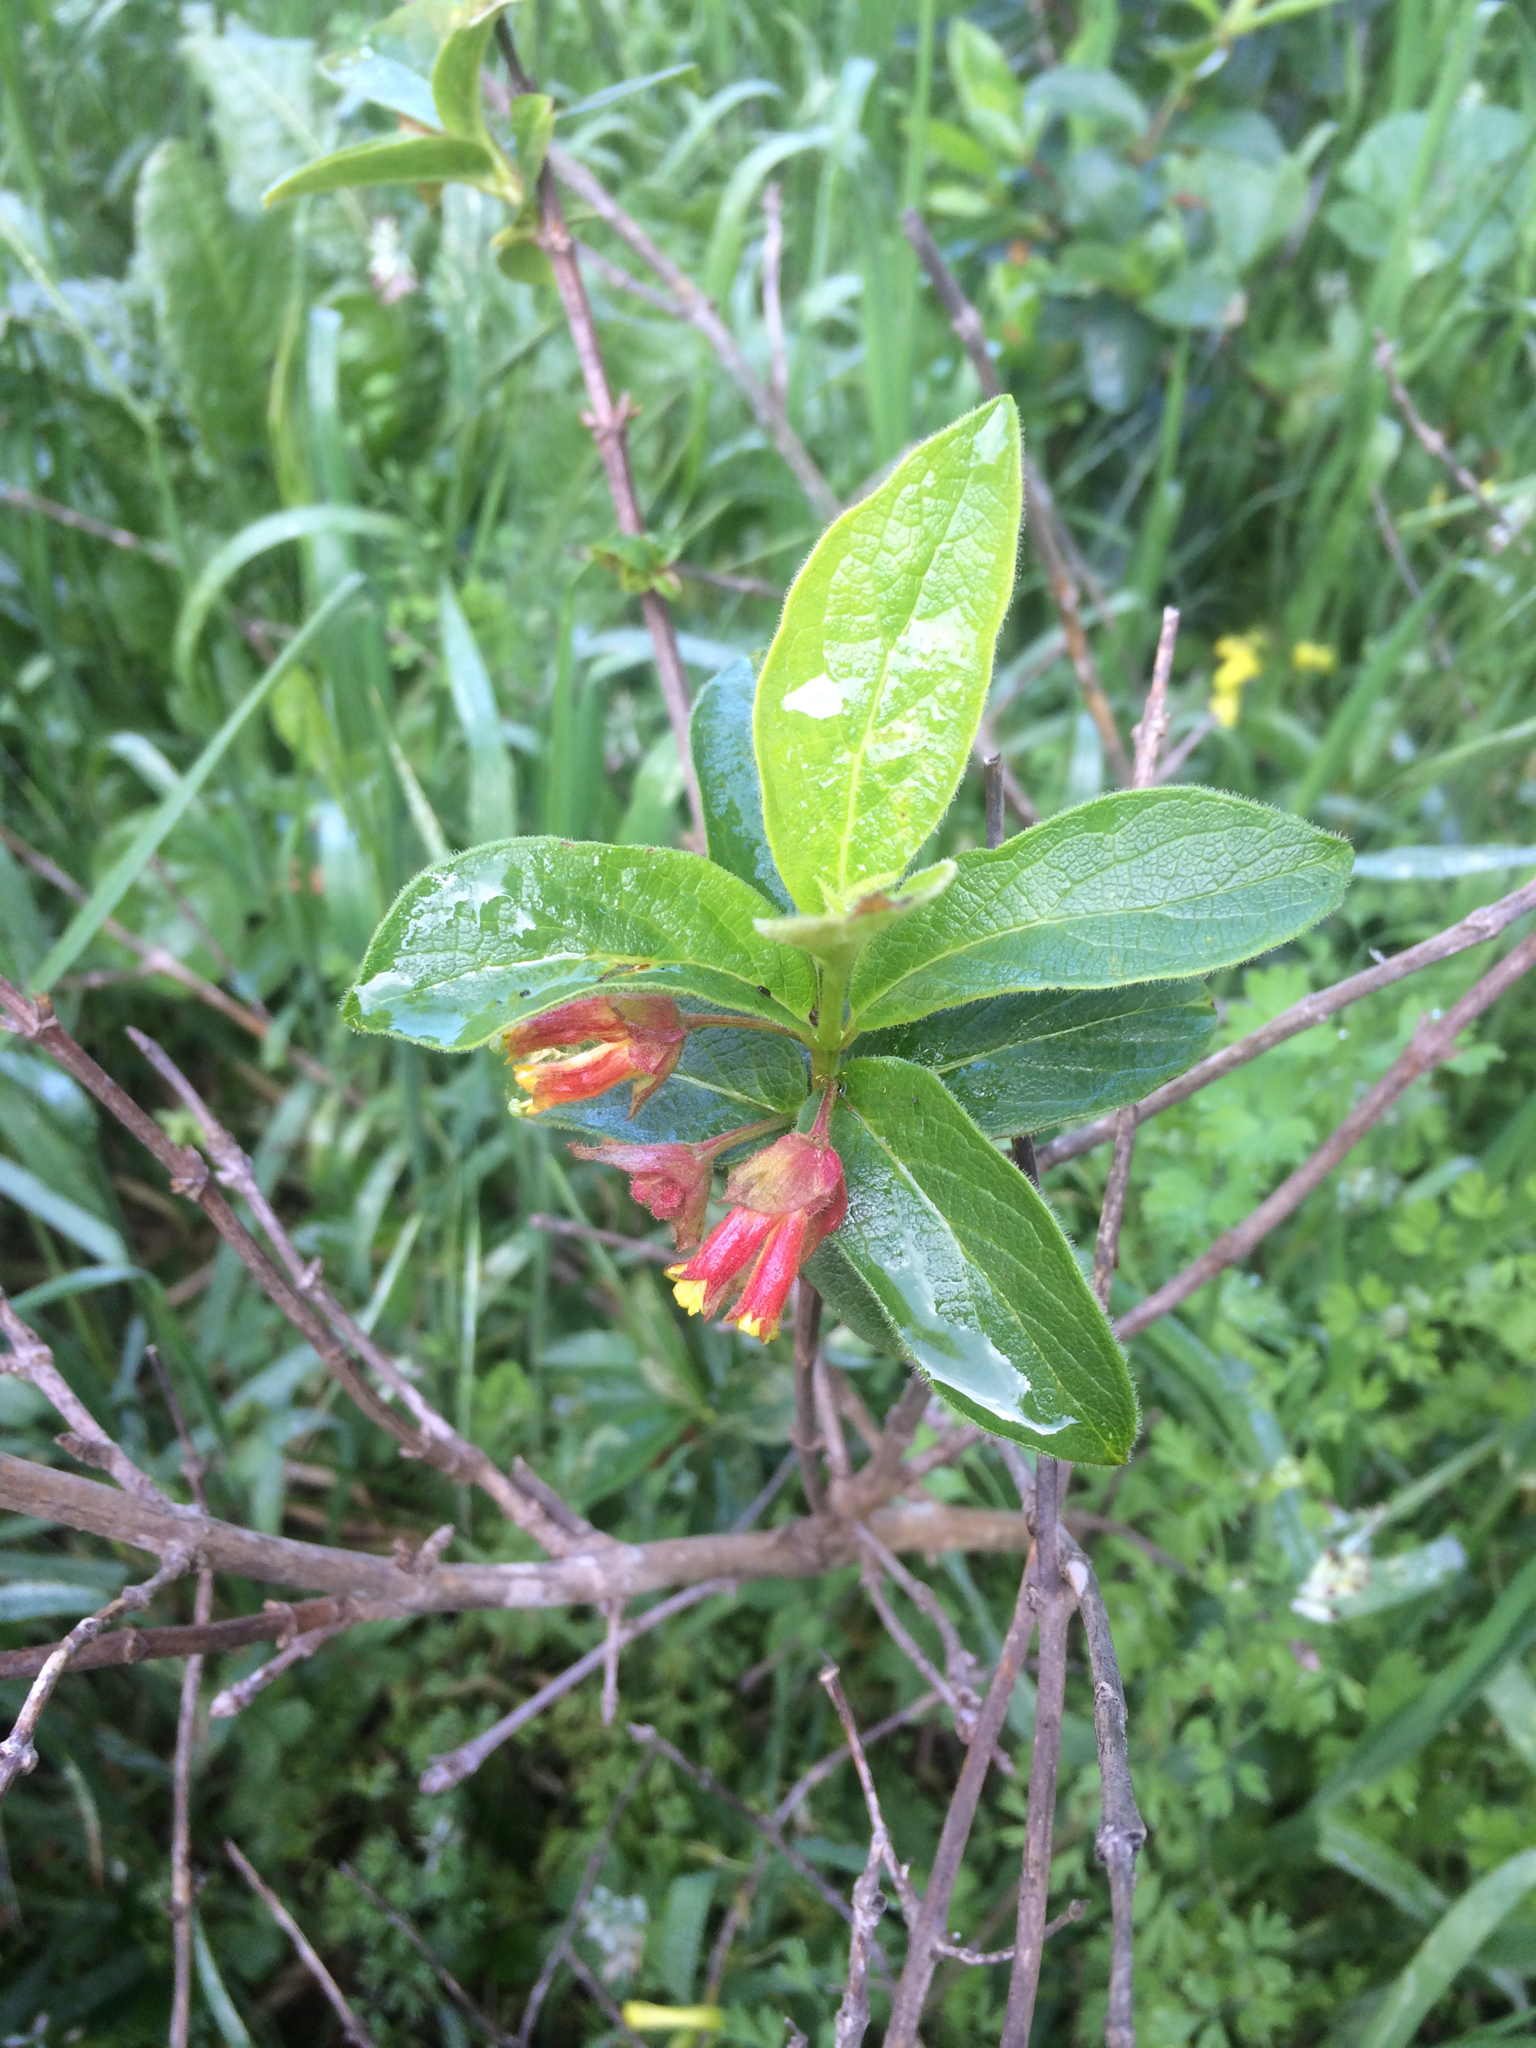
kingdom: Plantae
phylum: Tracheophyta
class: Magnoliopsida
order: Dipsacales
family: Caprifoliaceae
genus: Lonicera
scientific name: Lonicera involucrata
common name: Californian honeysuckle
